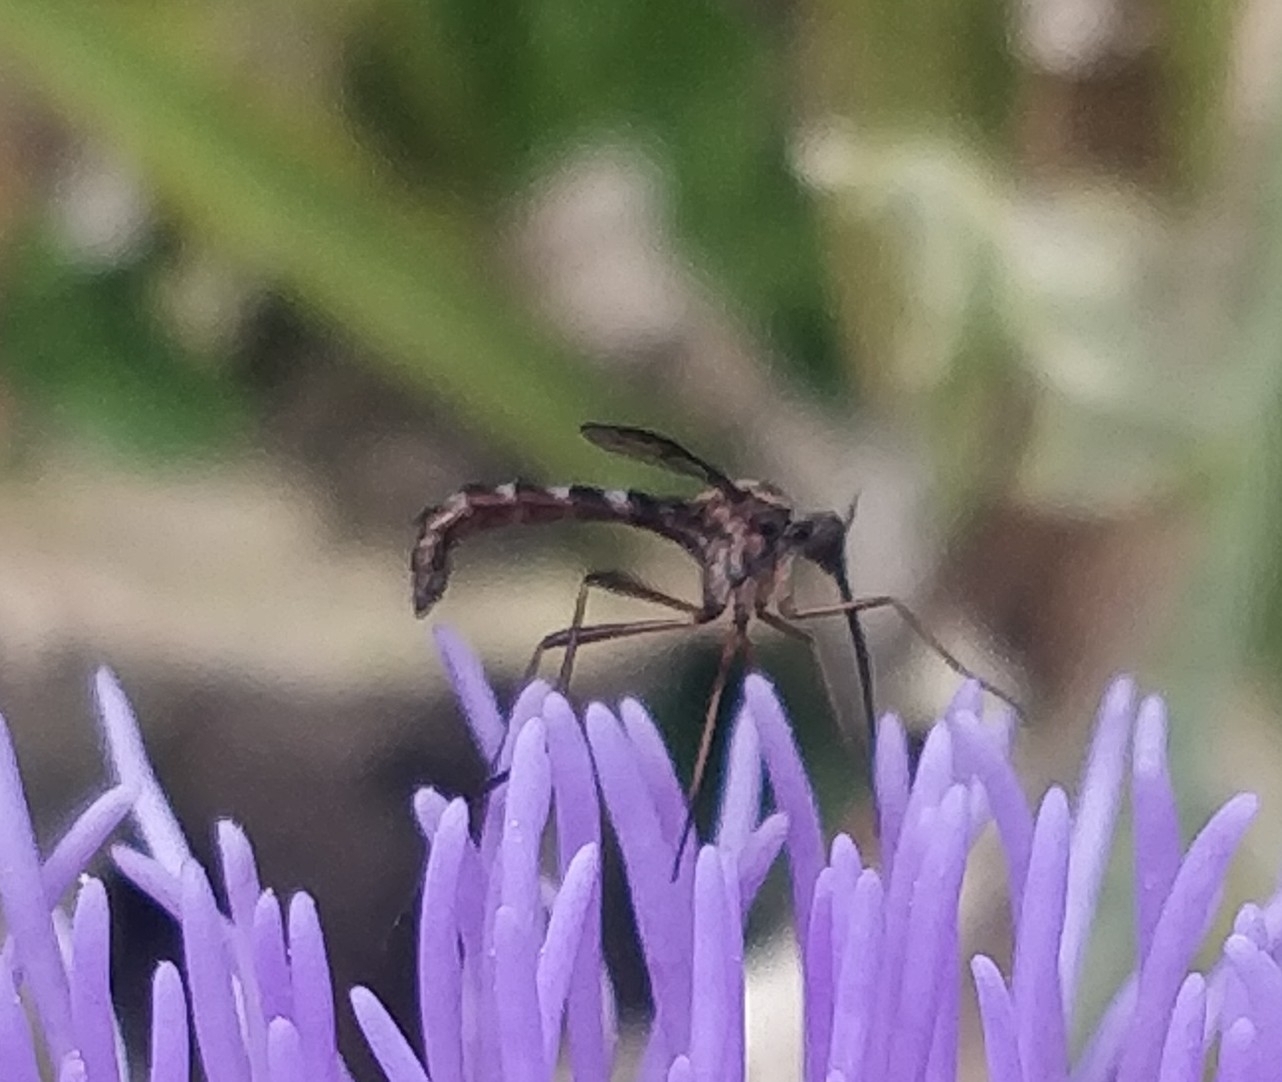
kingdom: Animalia
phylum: Arthropoda
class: Insecta
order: Diptera
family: Vermileonidae
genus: Lampromyia
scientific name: Lampromyia canariensis
